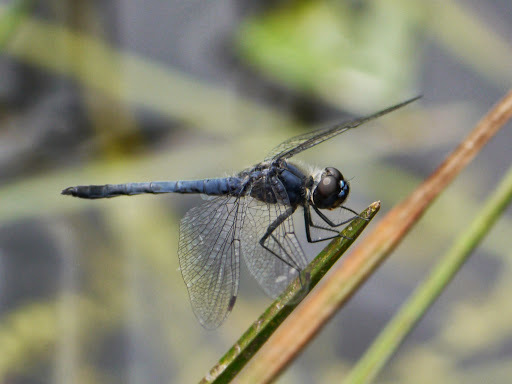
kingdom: Animalia
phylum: Arthropoda
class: Insecta
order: Odonata
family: Libellulidae
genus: Libellula
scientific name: Libellula incesta
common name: Slaty skimmer
